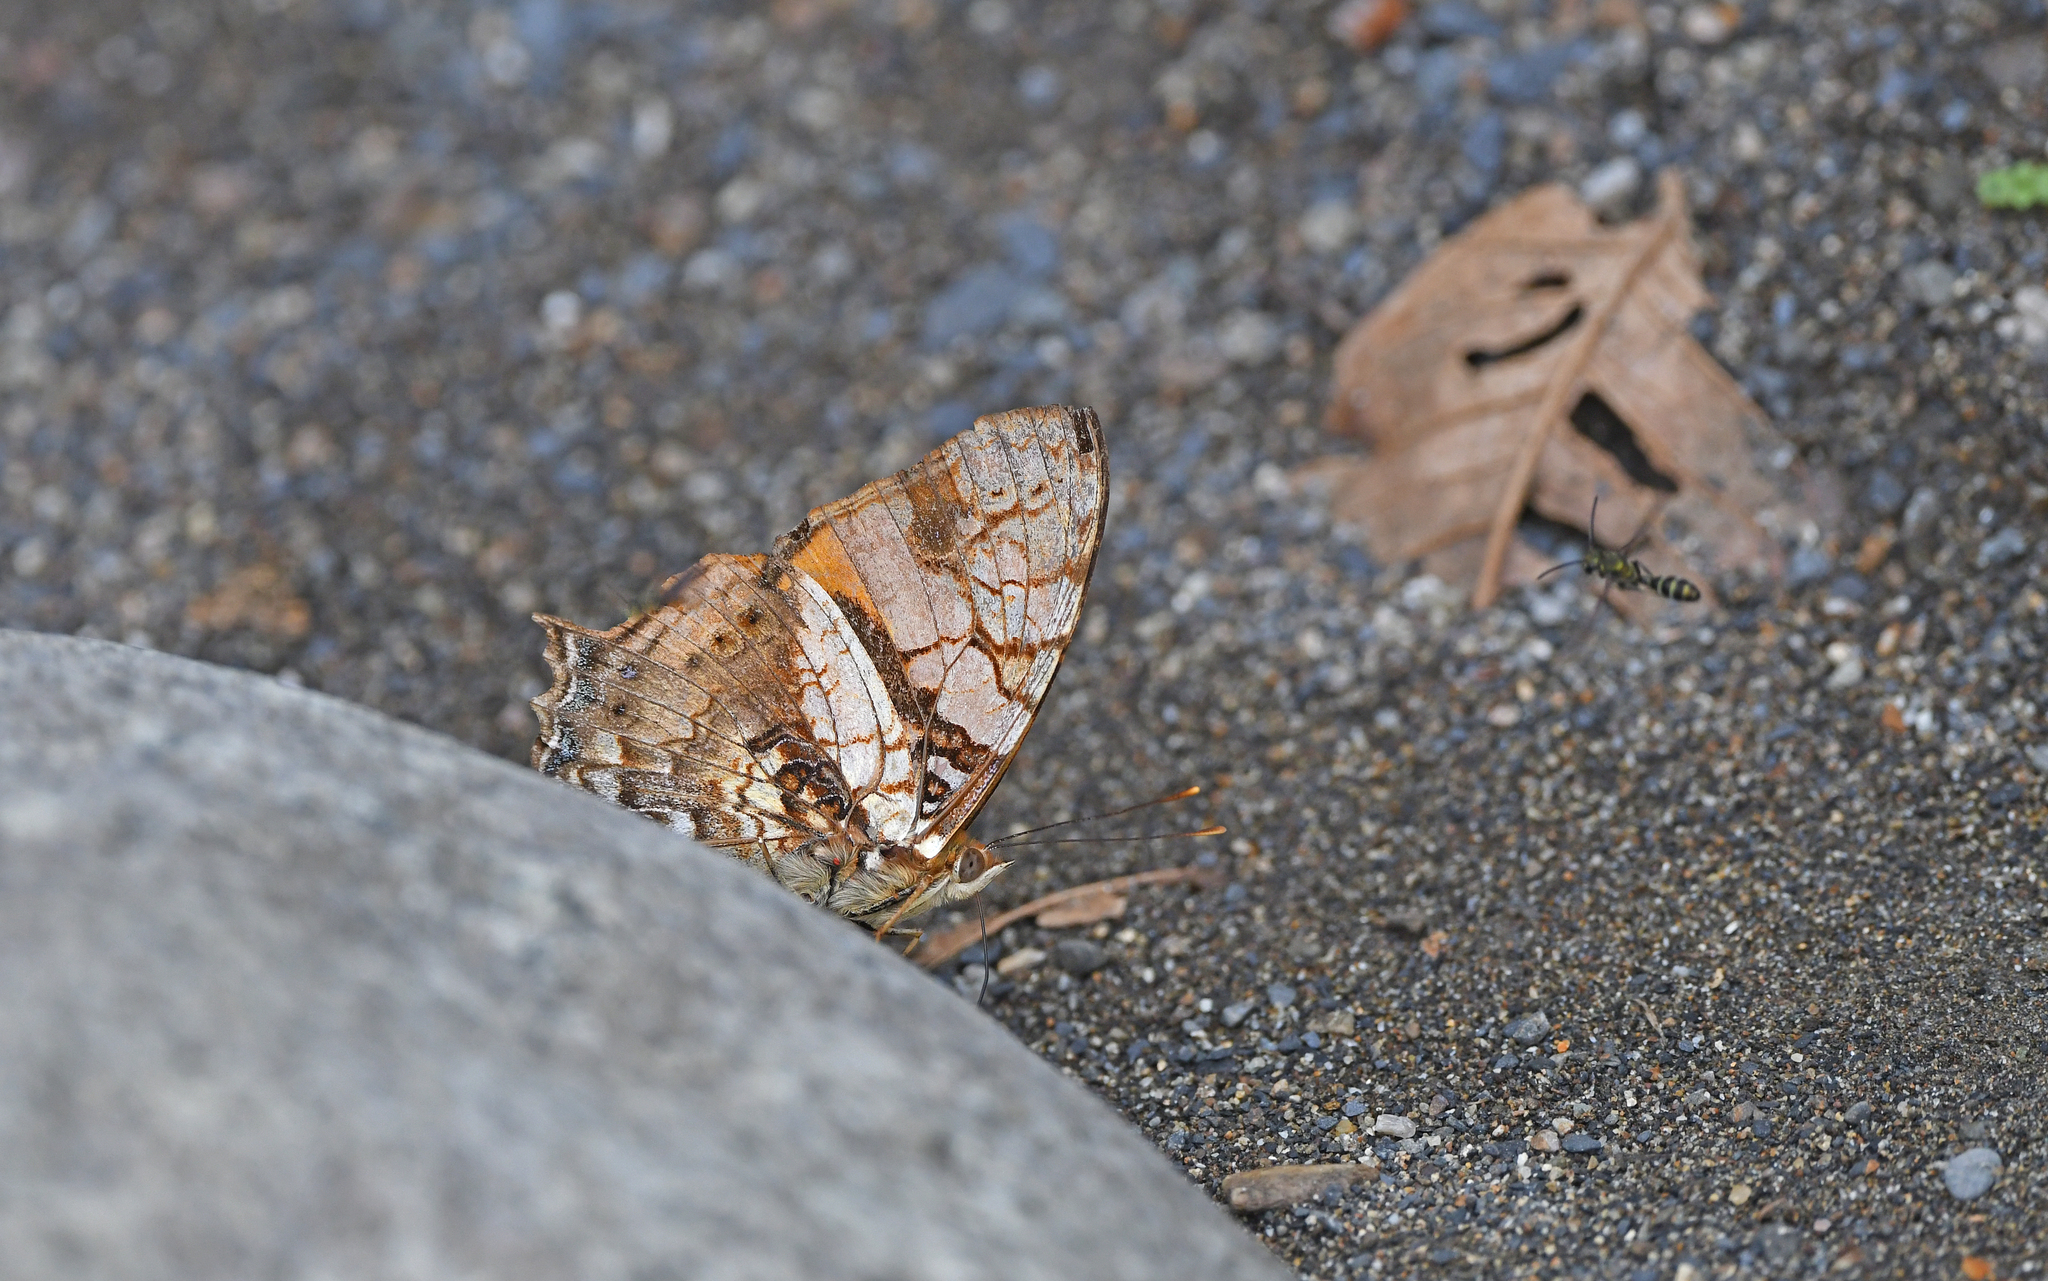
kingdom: Animalia
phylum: Arthropoda
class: Insecta
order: Lepidoptera
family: Nymphalidae
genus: Hypanartia
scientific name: Hypanartia lethe
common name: Orange mapwing
